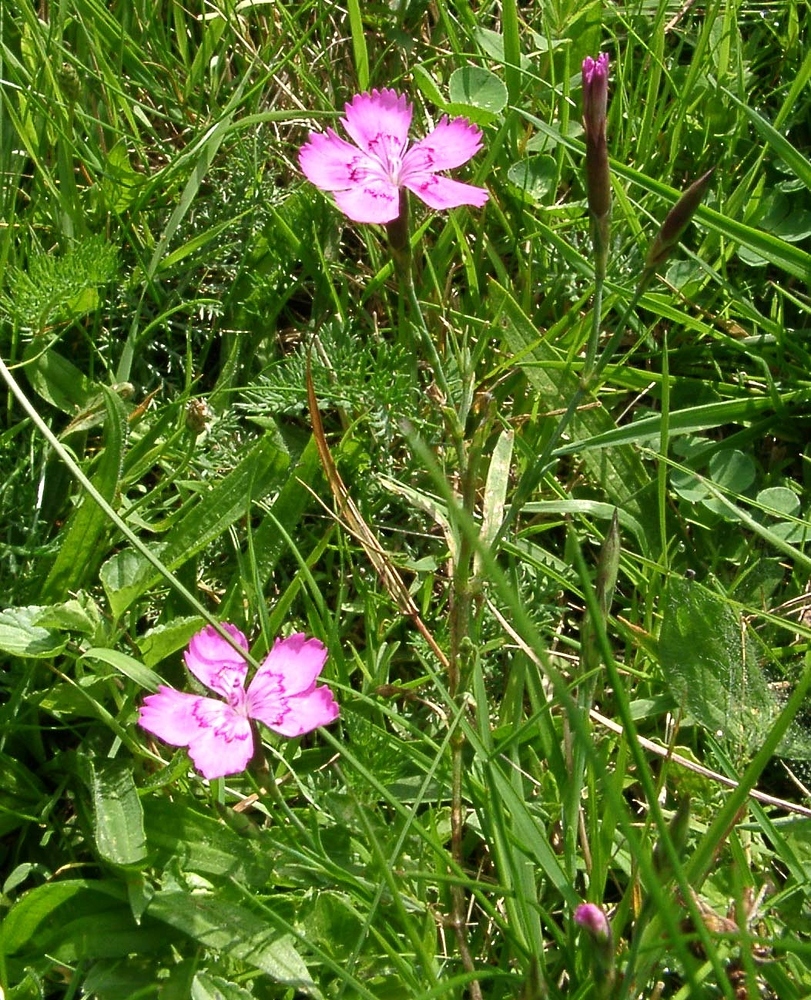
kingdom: Plantae
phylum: Tracheophyta
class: Magnoliopsida
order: Caryophyllales
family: Caryophyllaceae
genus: Dianthus
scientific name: Dianthus deltoides
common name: Maiden pink
